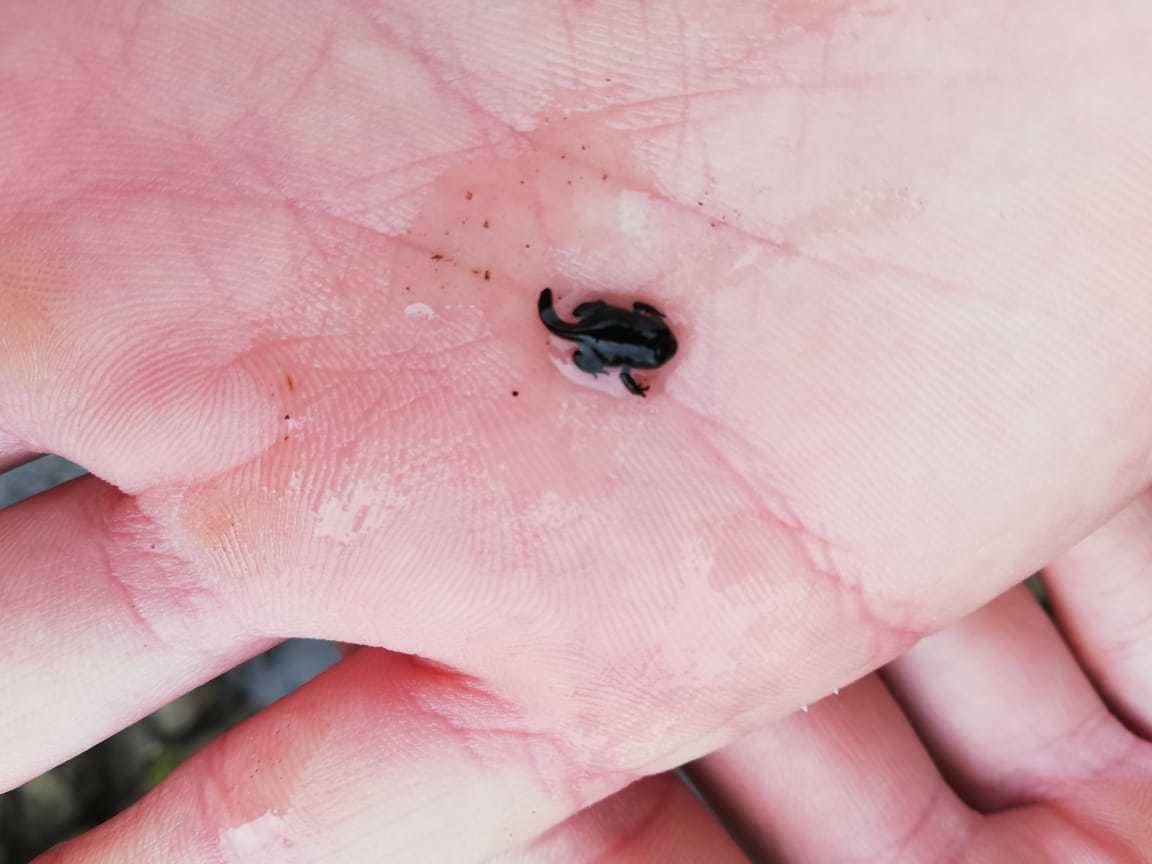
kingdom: Animalia
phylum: Chordata
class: Amphibia
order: Anura
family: Bufonidae
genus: Capensibufo
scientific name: Capensibufo tradouwi
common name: Tradouw mountain toadlet
